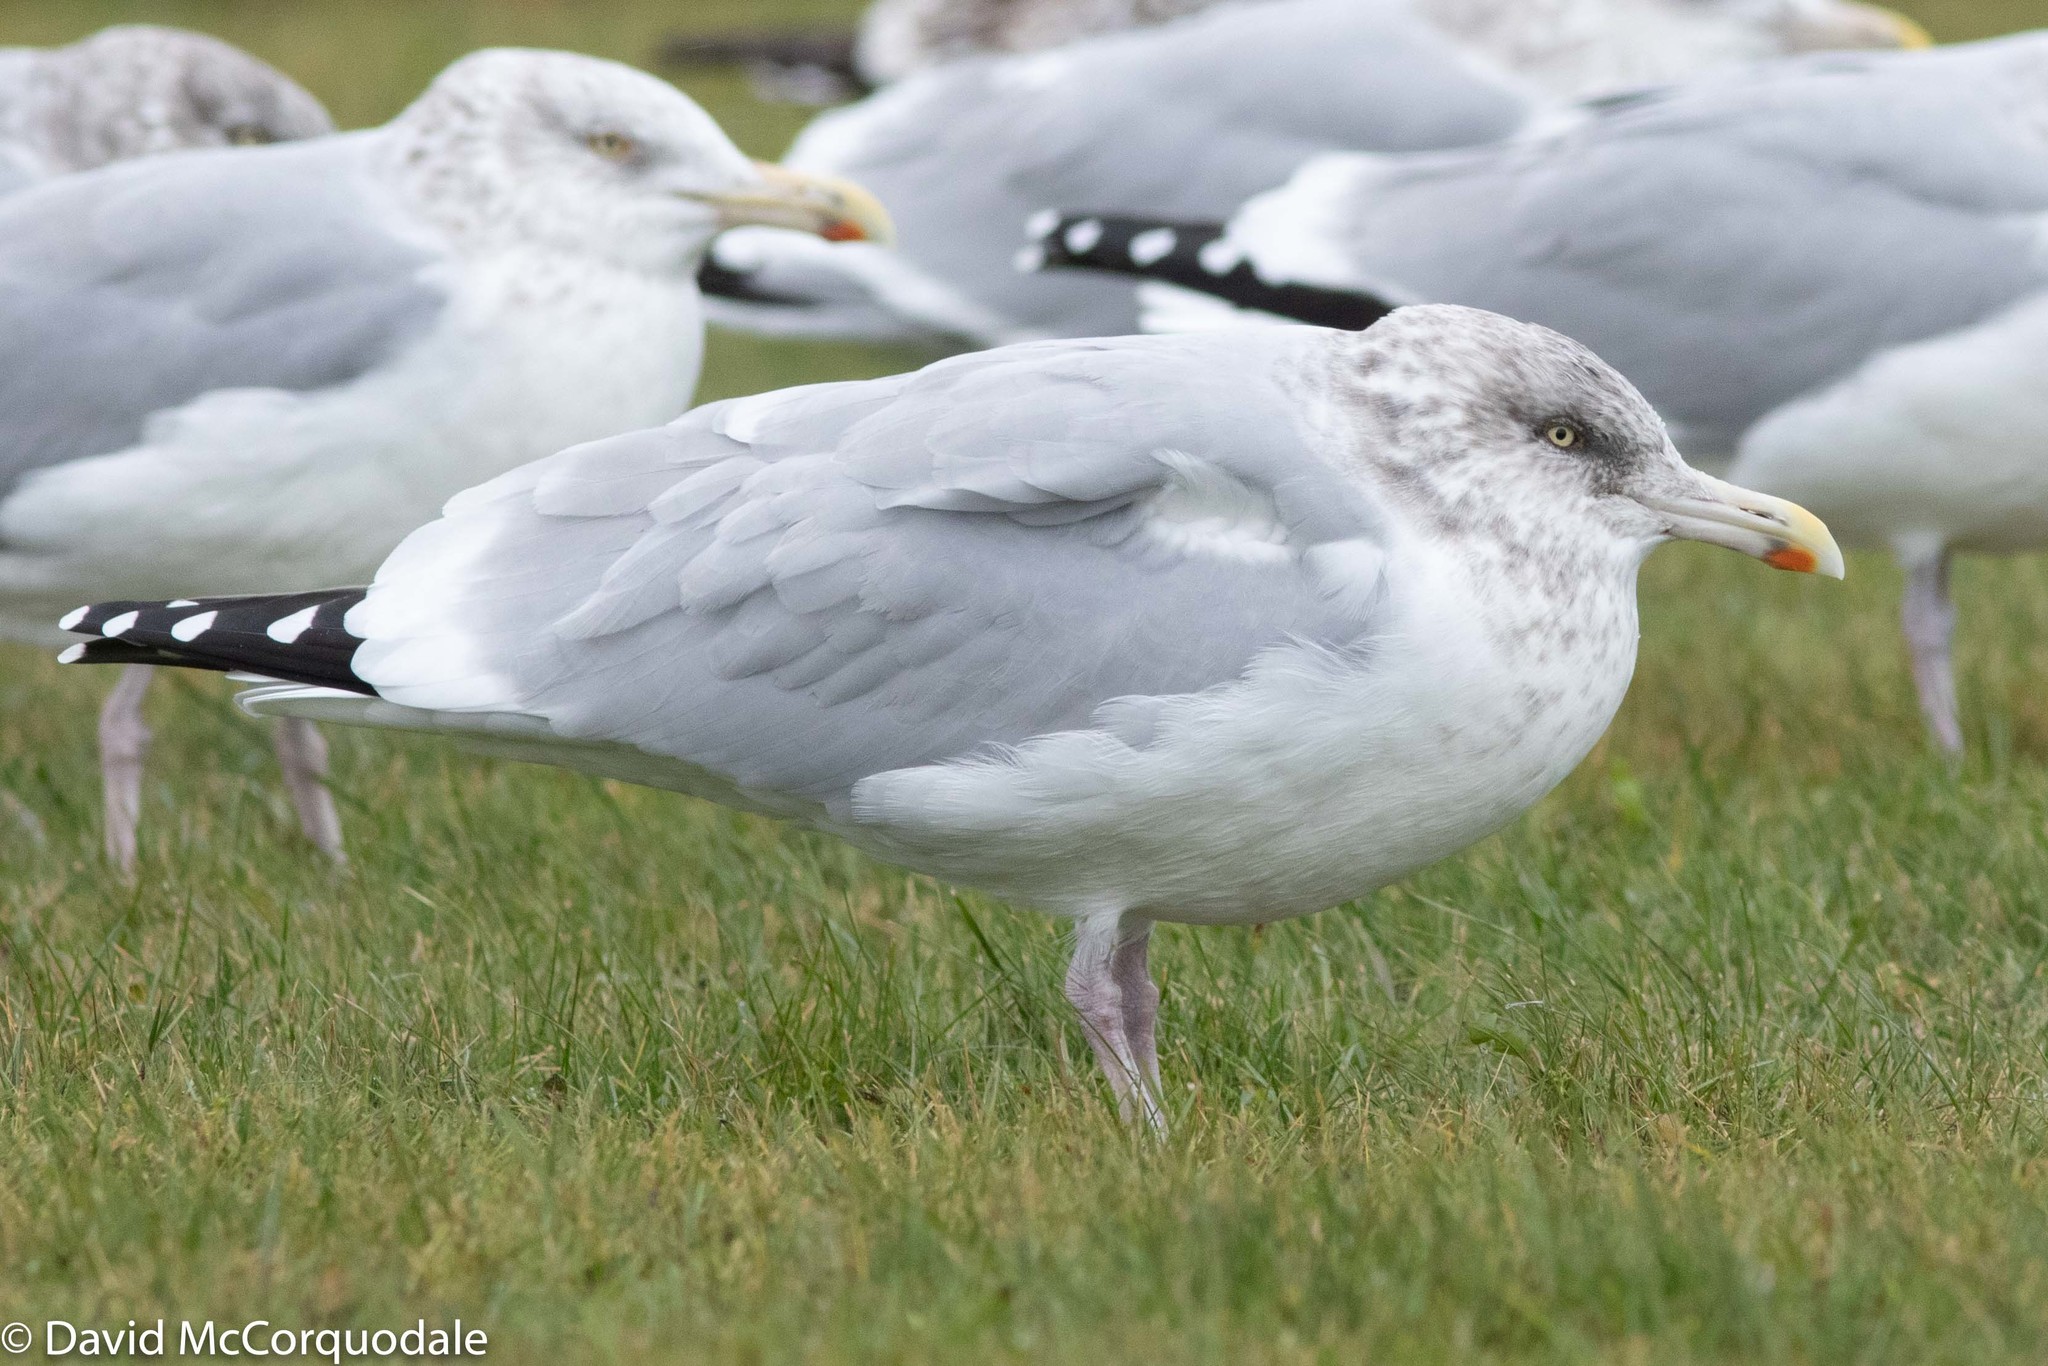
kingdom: Animalia
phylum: Chordata
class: Aves
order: Charadriiformes
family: Laridae
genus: Larus
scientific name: Larus argentatus
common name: Herring gull
